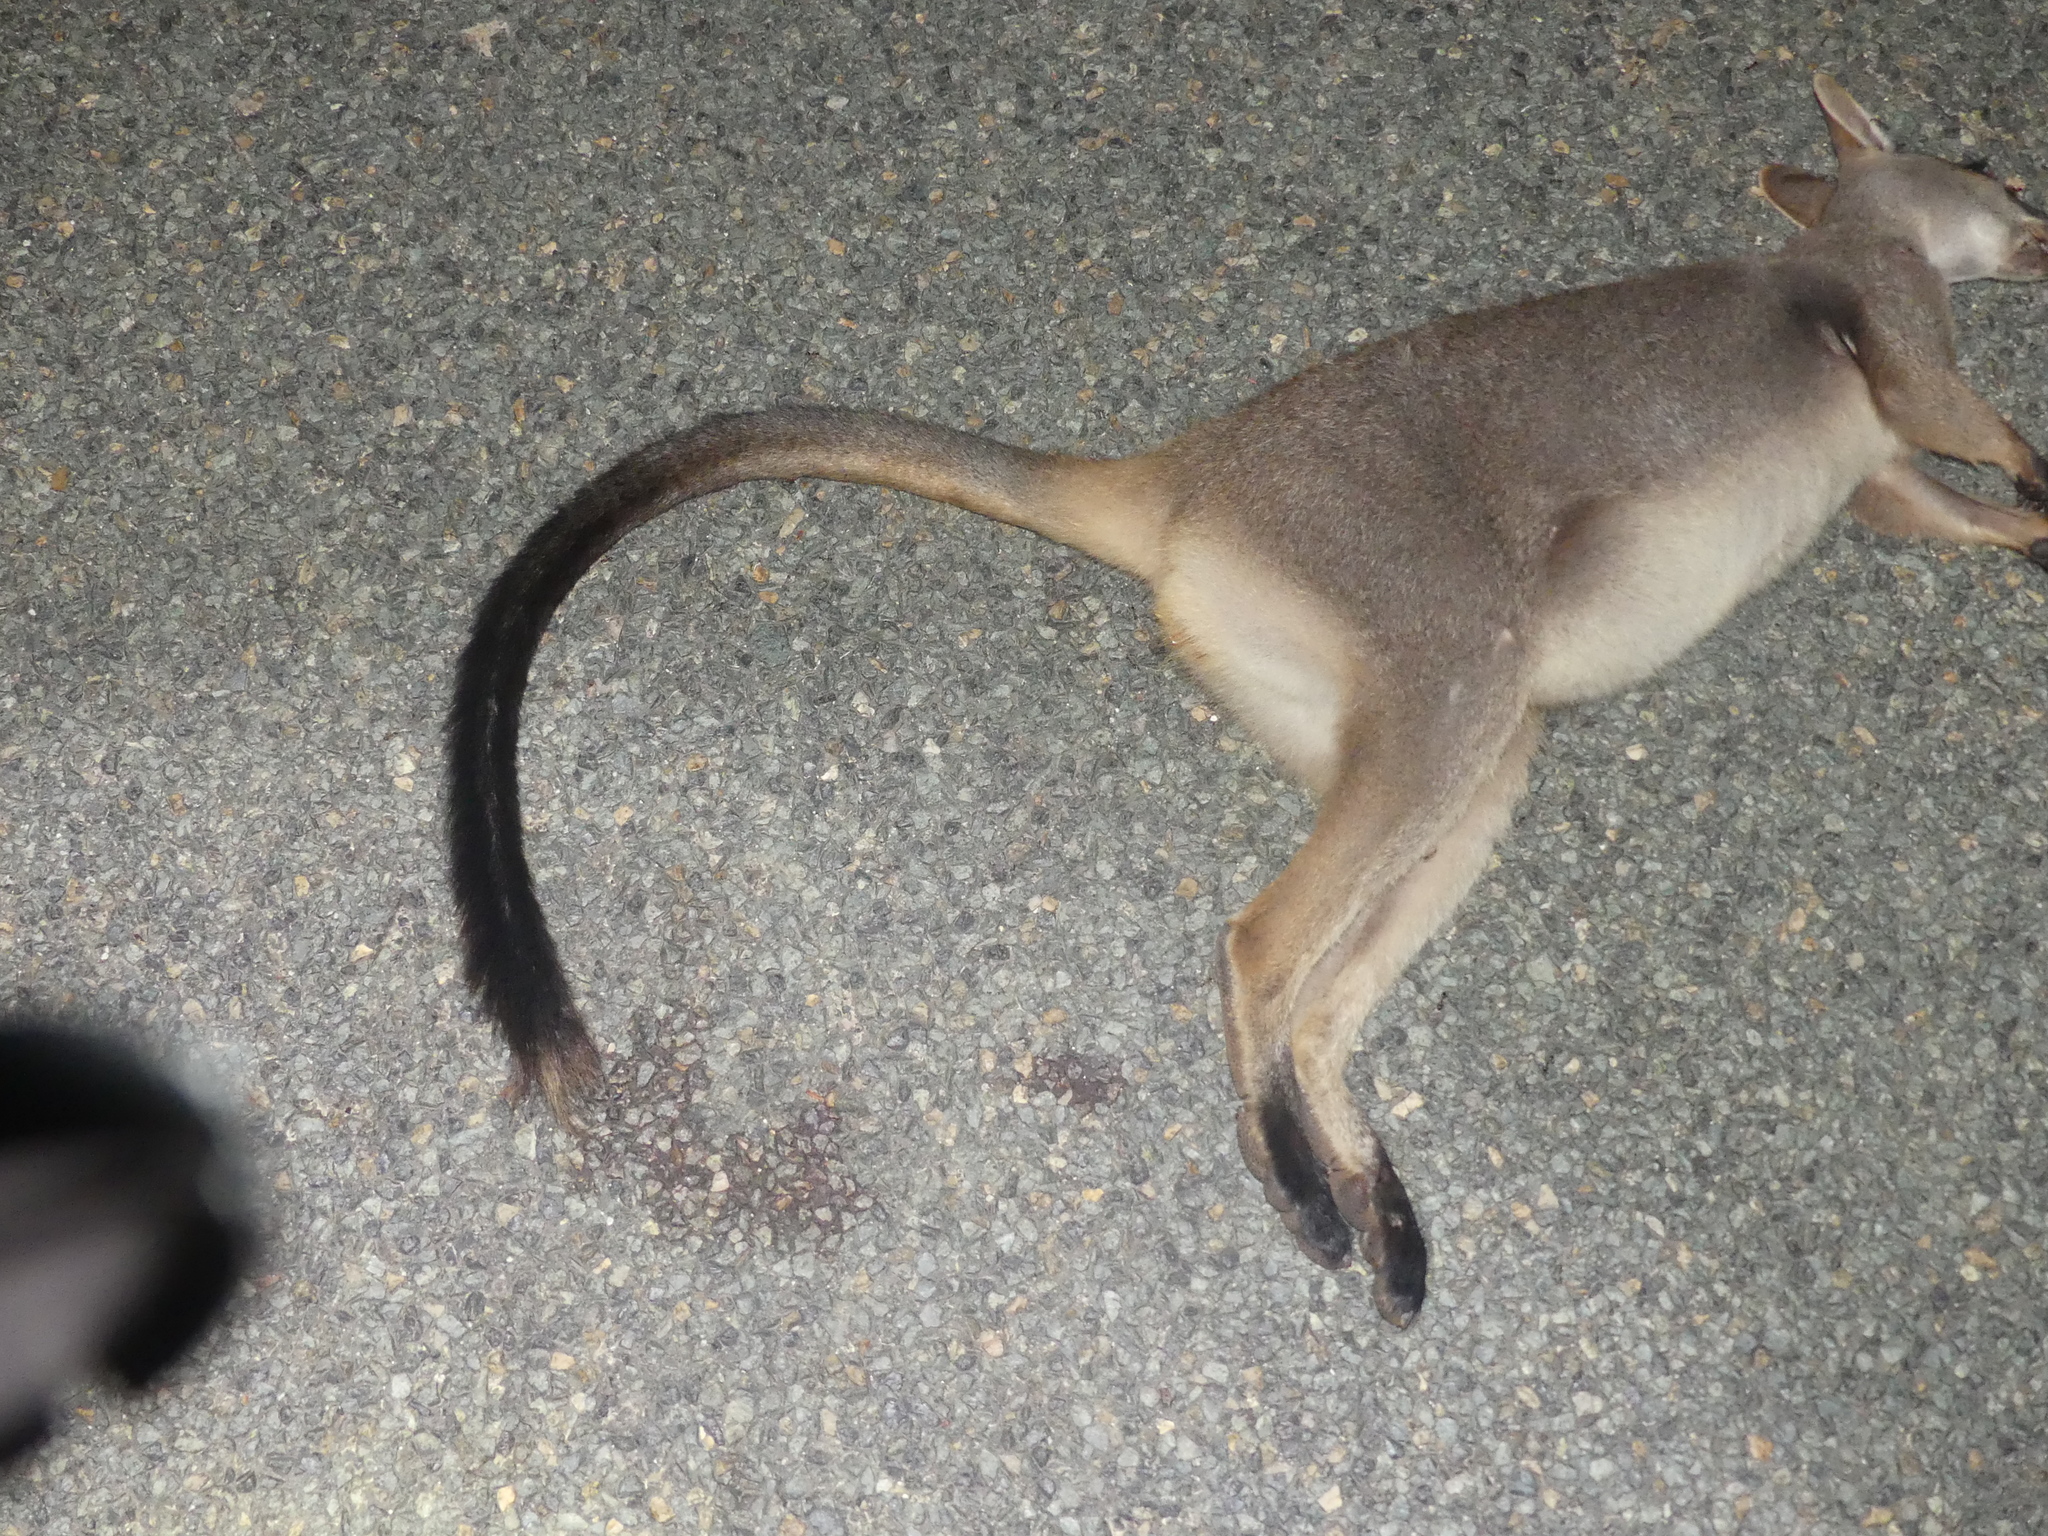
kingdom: Animalia
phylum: Chordata
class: Mammalia
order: Diprotodontia
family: Macropodidae
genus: Petrogale
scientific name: Petrogale persephone
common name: Proserpine rock-wallaby
